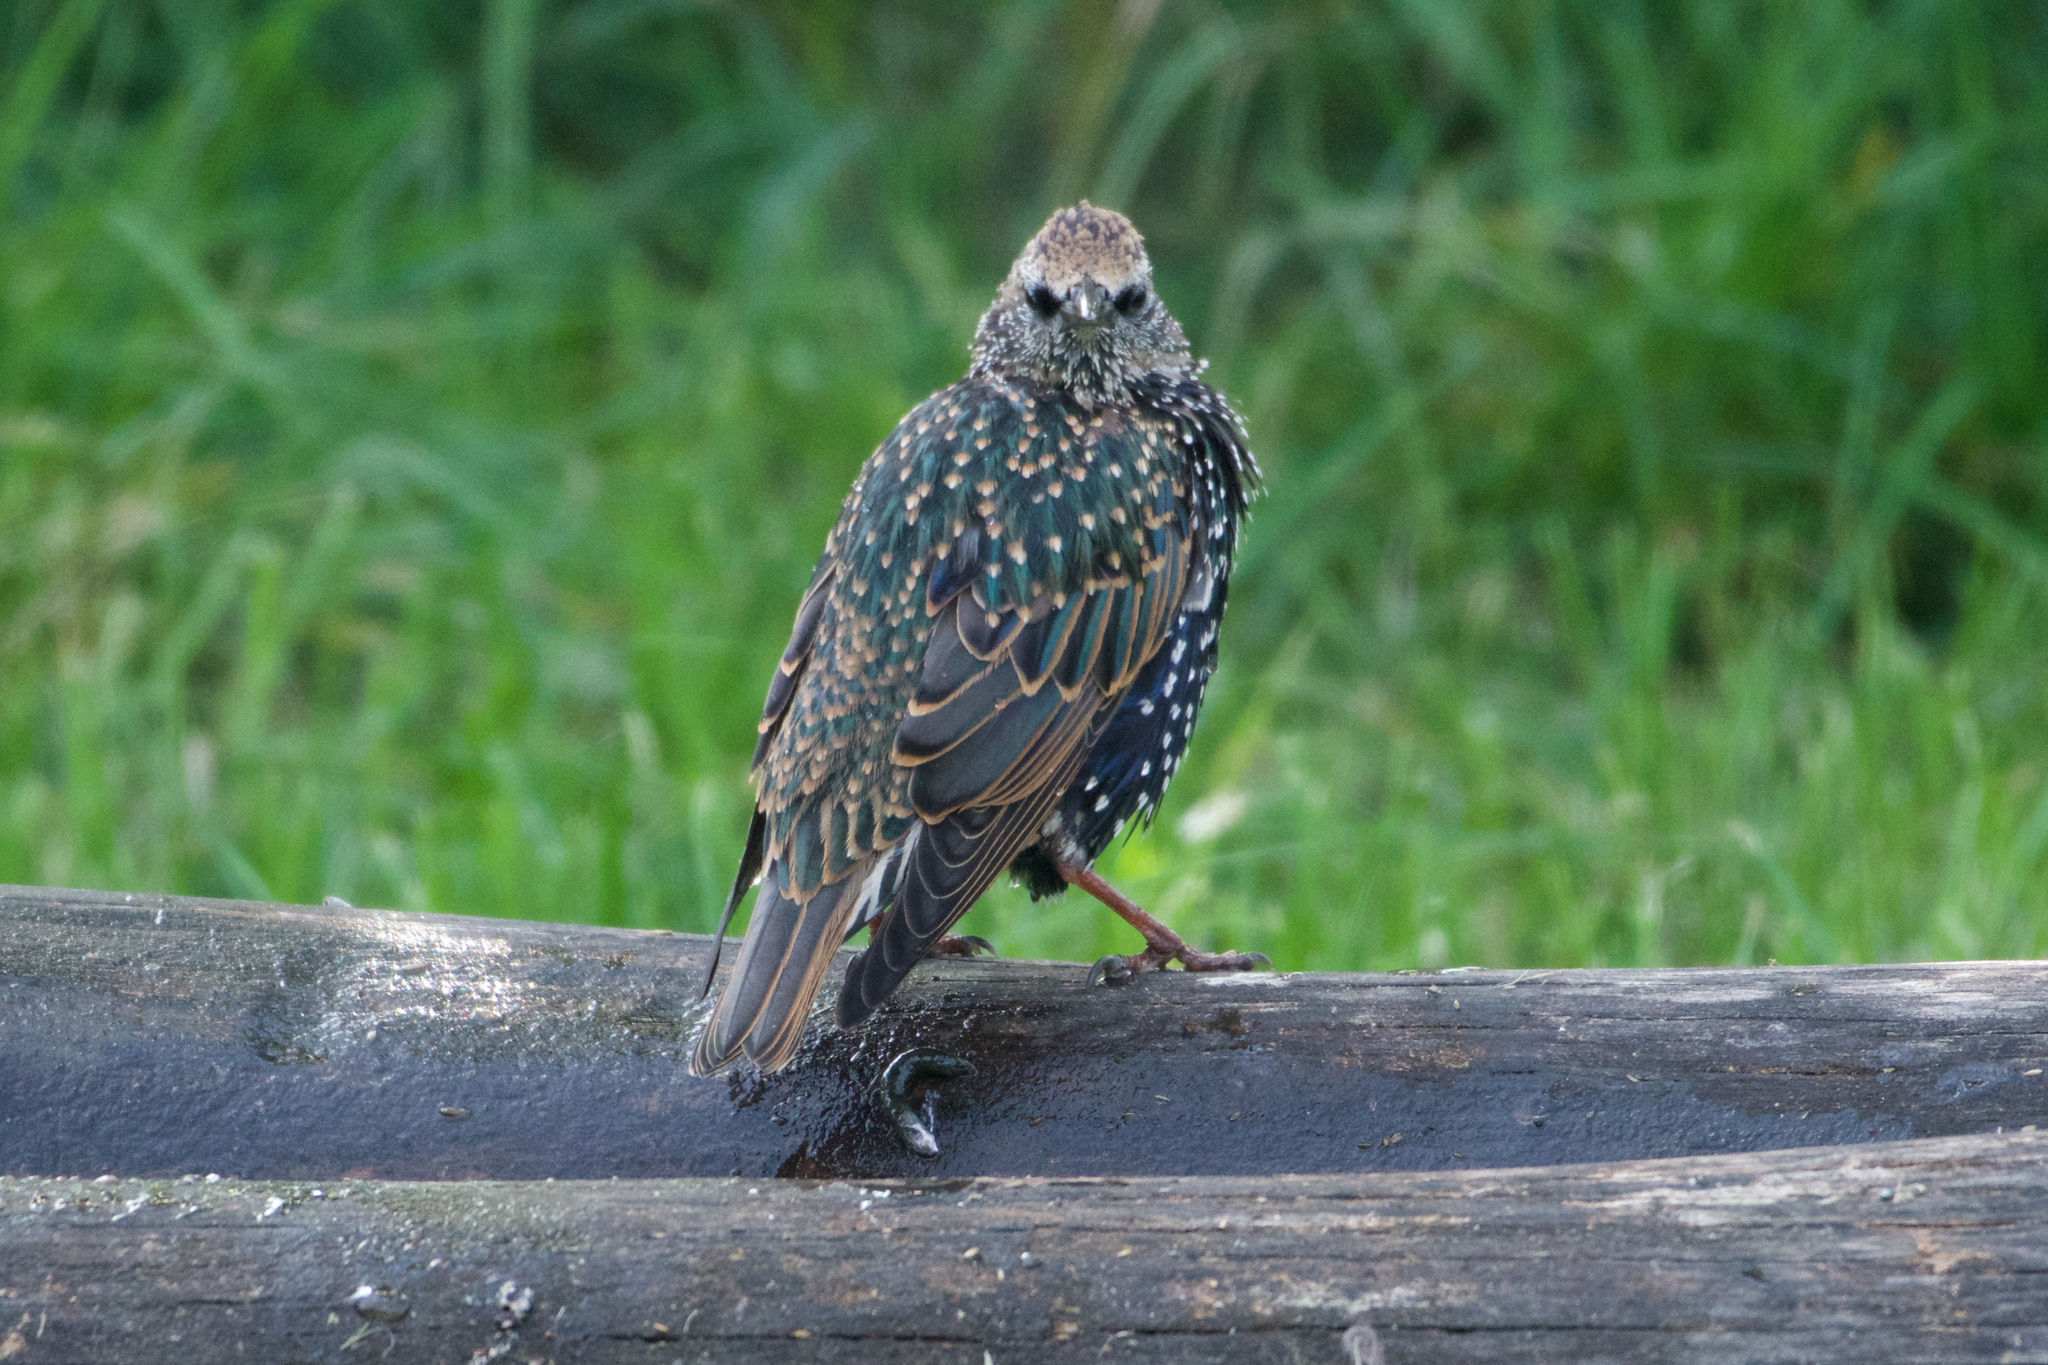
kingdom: Animalia
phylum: Chordata
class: Aves
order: Passeriformes
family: Sturnidae
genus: Sturnus
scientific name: Sturnus vulgaris
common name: Common starling
